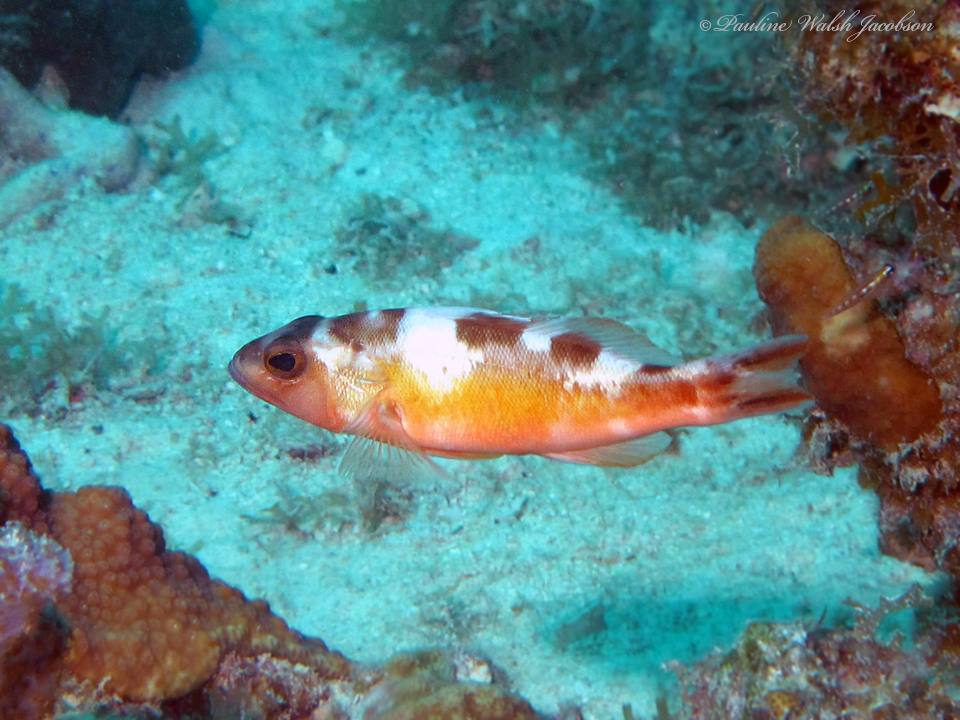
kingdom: Animalia
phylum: Chordata
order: Perciformes
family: Serranidae
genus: Serranus
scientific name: Serranus tabacarius
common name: Tobaccofish
